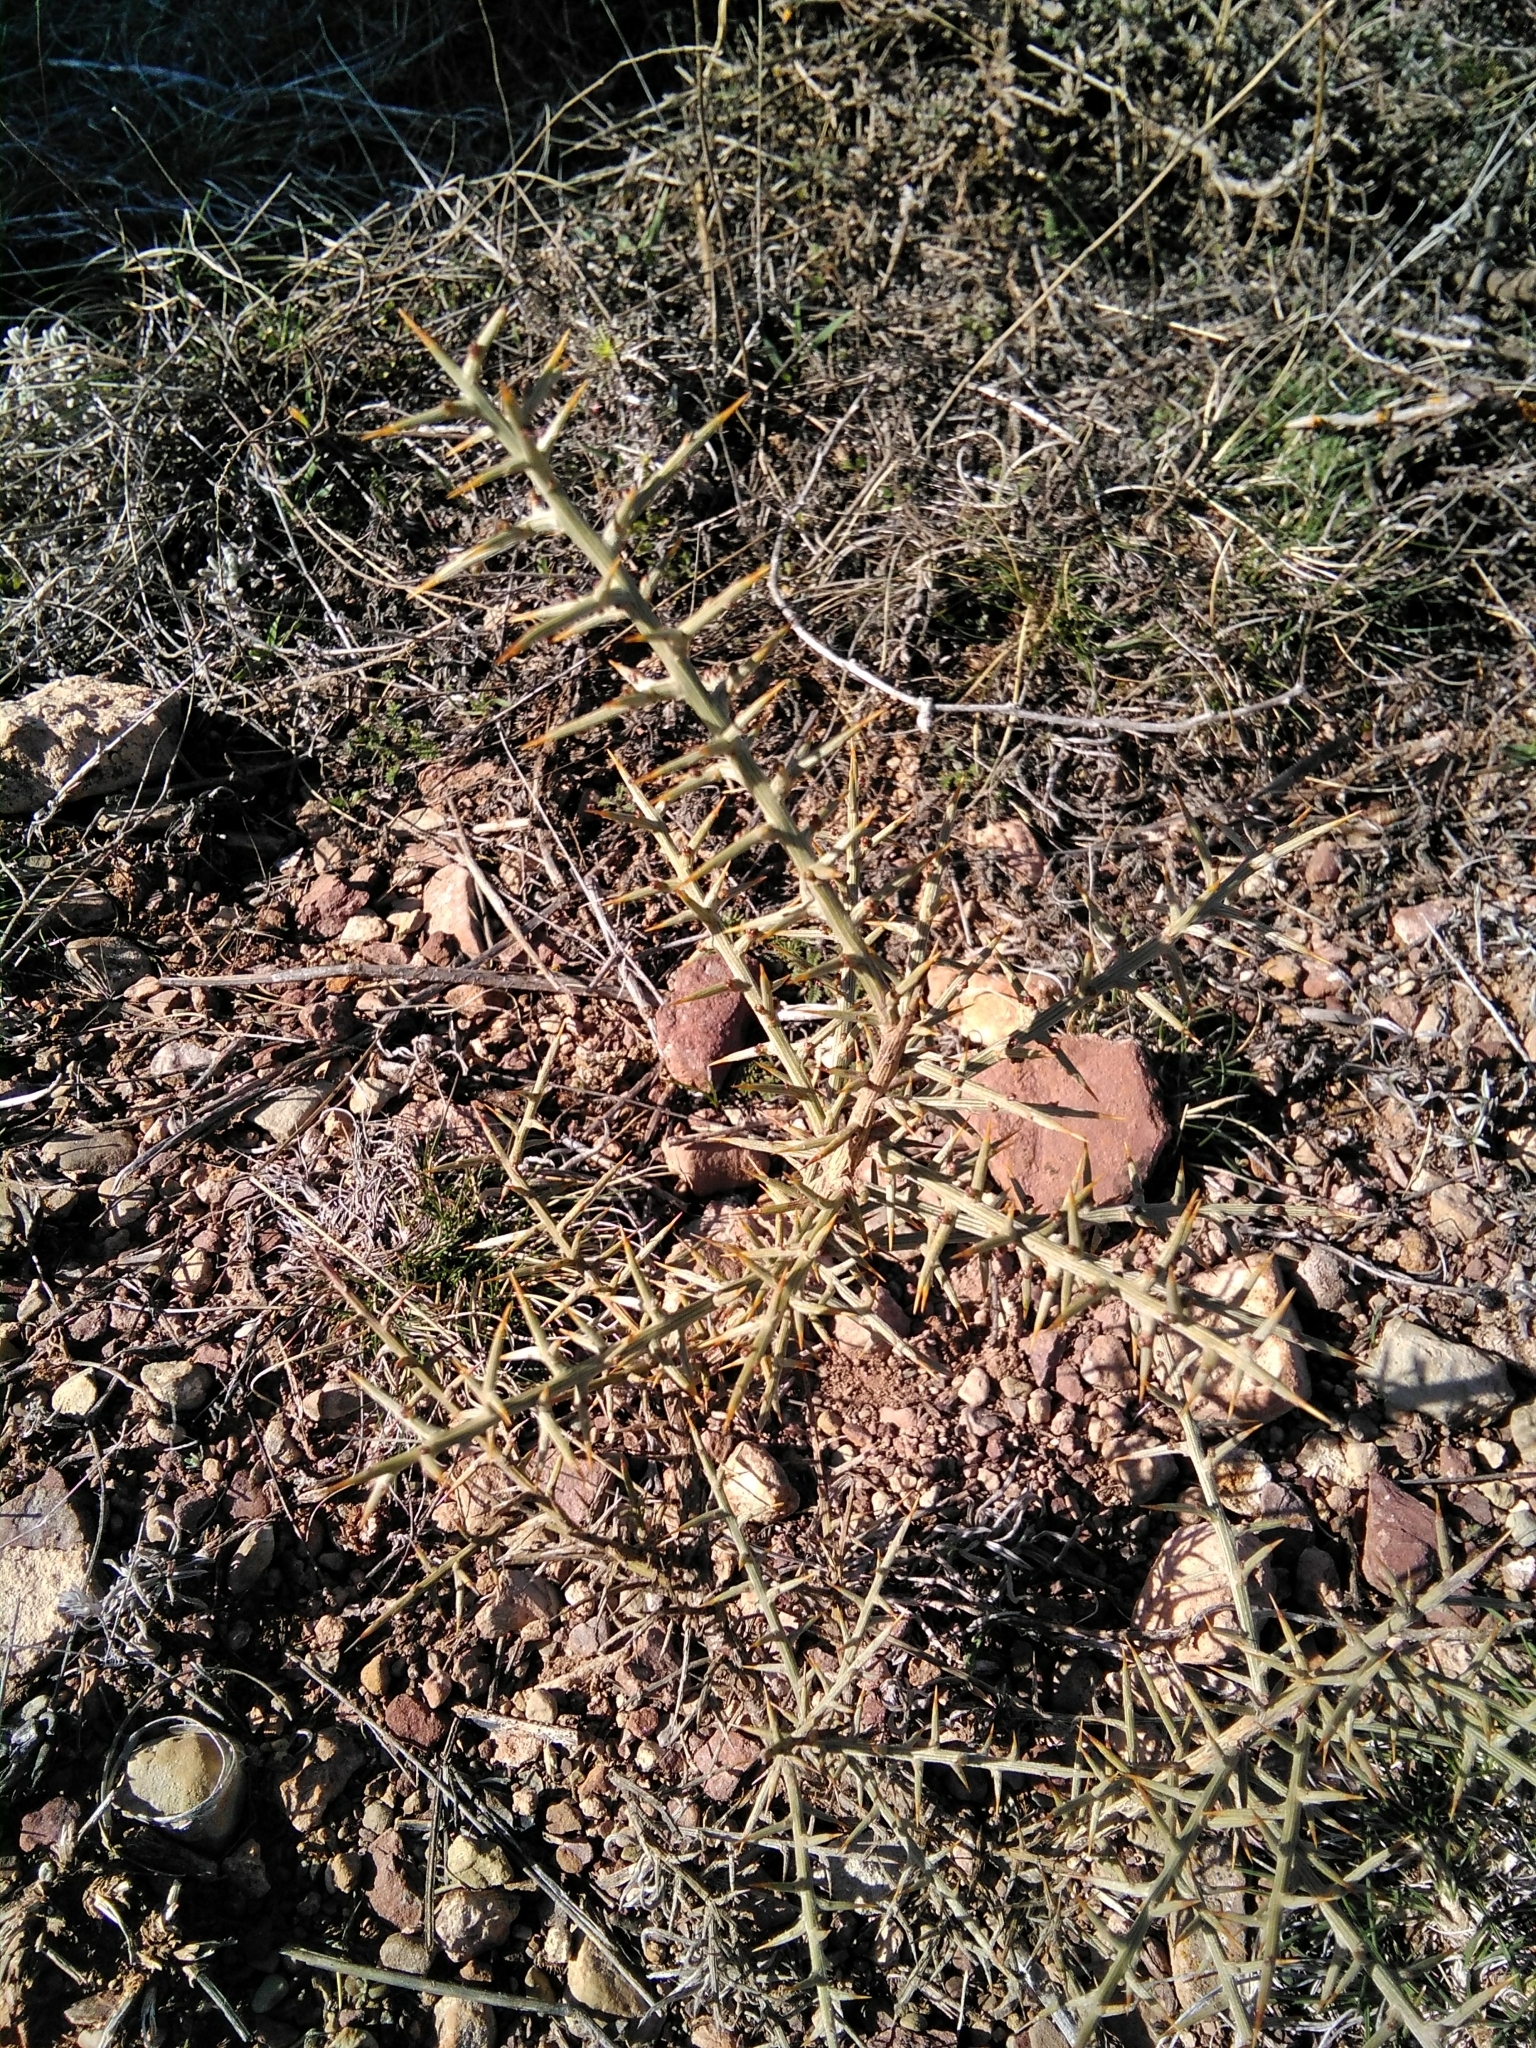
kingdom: Plantae
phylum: Tracheophyta
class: Magnoliopsida
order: Fabales
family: Fabaceae
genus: Genista
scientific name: Genista scorpius
